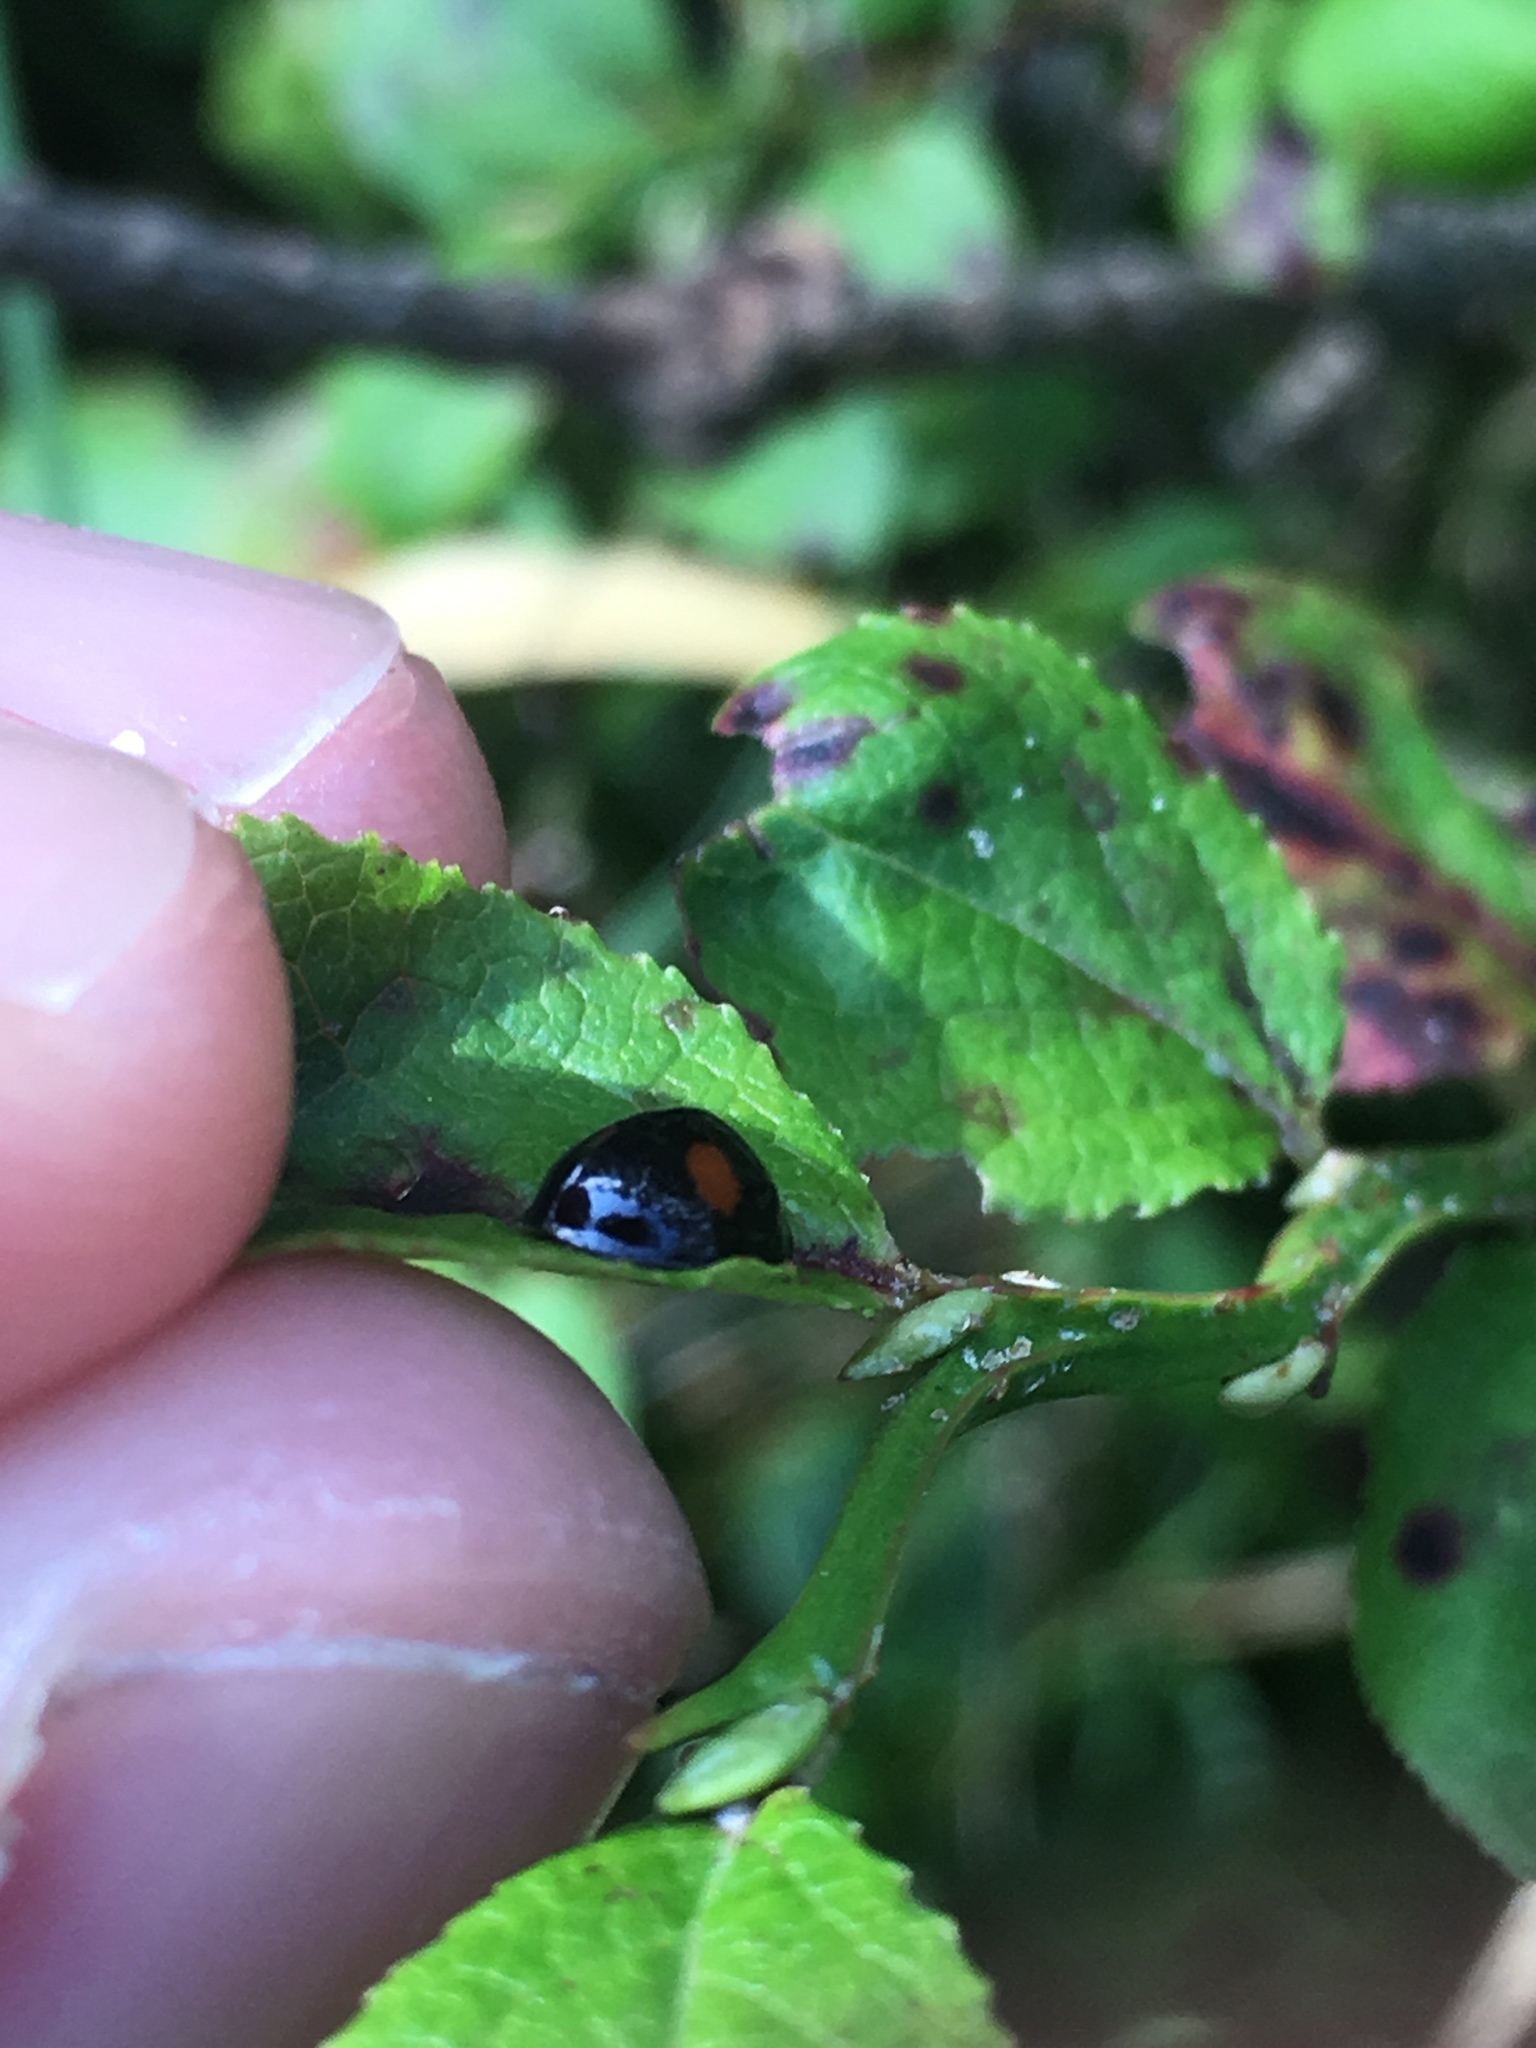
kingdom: Animalia
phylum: Arthropoda
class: Insecta
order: Coleoptera
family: Coccinellidae
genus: Chilocorus
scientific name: Chilocorus renipustulatus
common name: Kidney-spot ladybird
